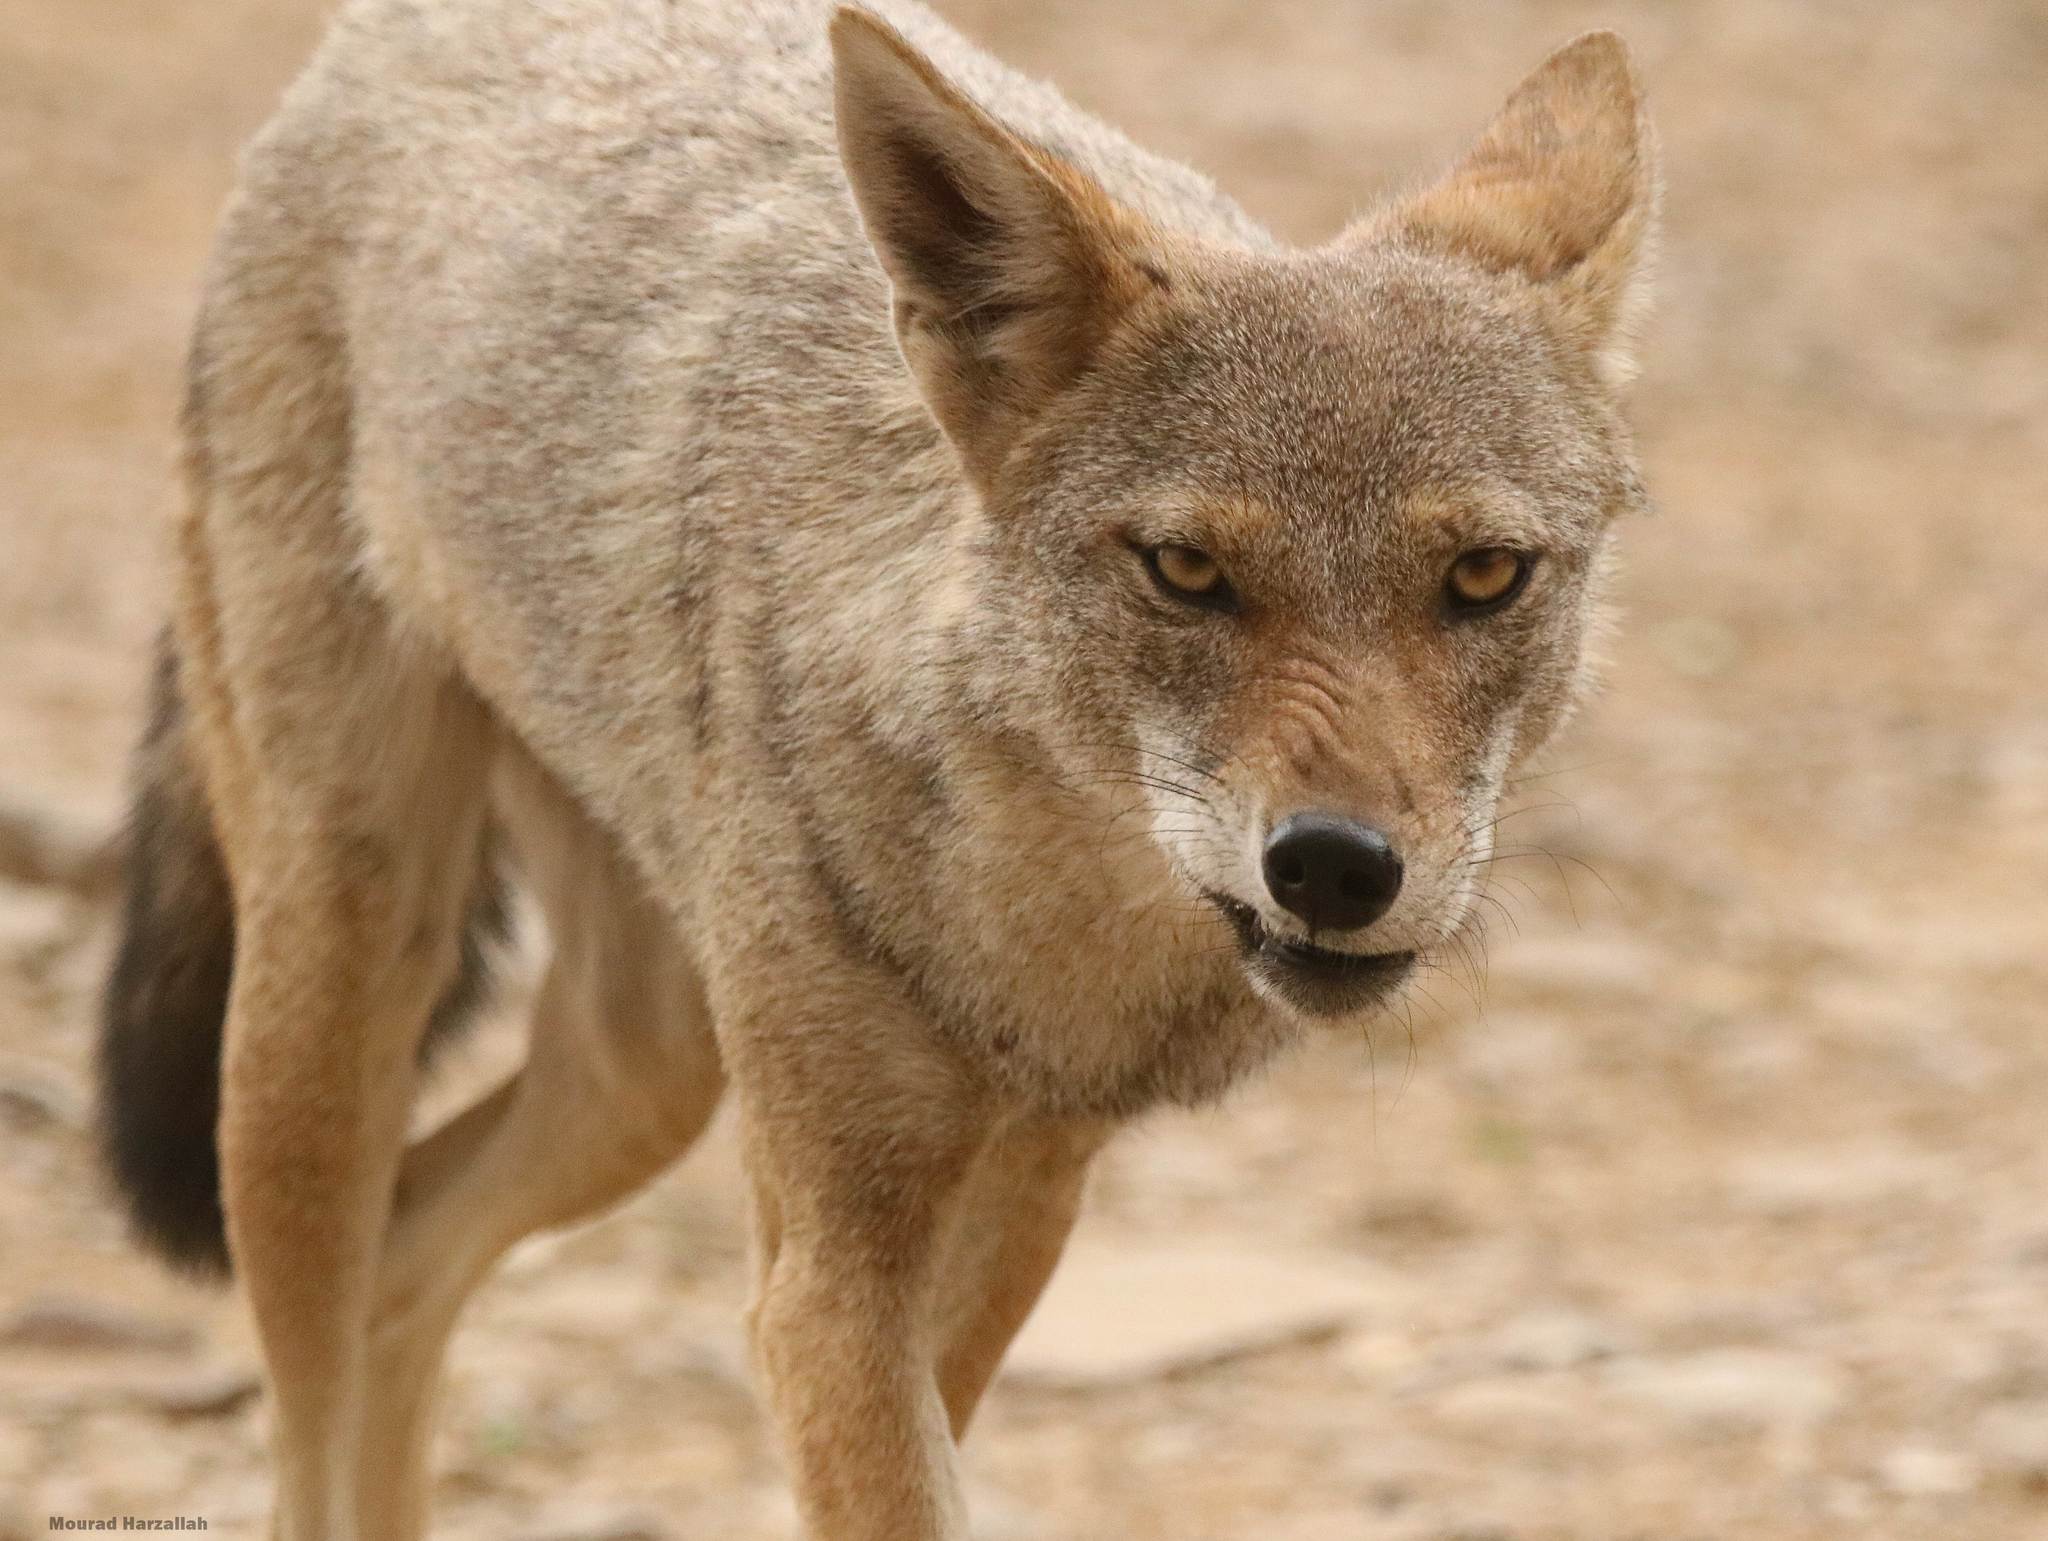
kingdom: Animalia
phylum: Chordata
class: Mammalia
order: Carnivora
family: Canidae
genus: Canis
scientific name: Canis lupaster
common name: African golden wolf
